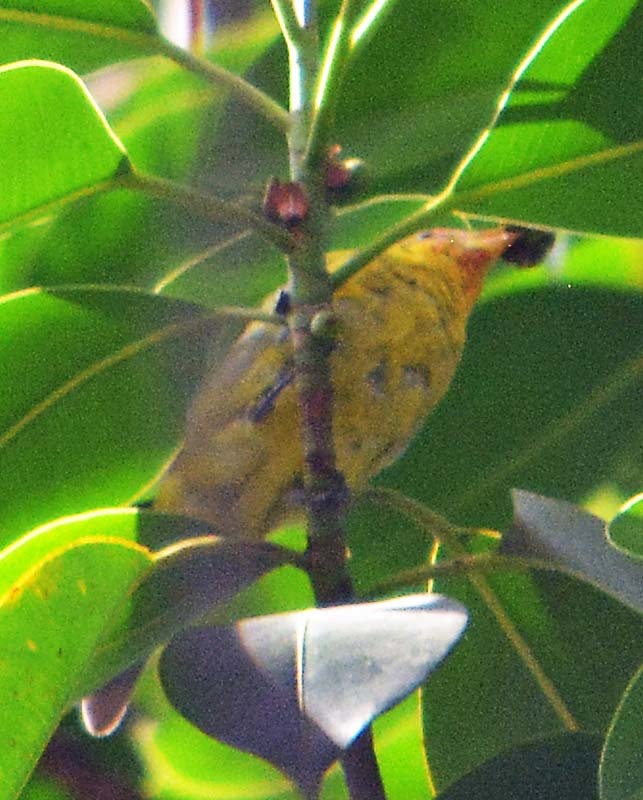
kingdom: Animalia
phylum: Chordata
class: Aves
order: Passeriformes
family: Cardinalidae
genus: Piranga
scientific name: Piranga ludoviciana
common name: Western tanager
